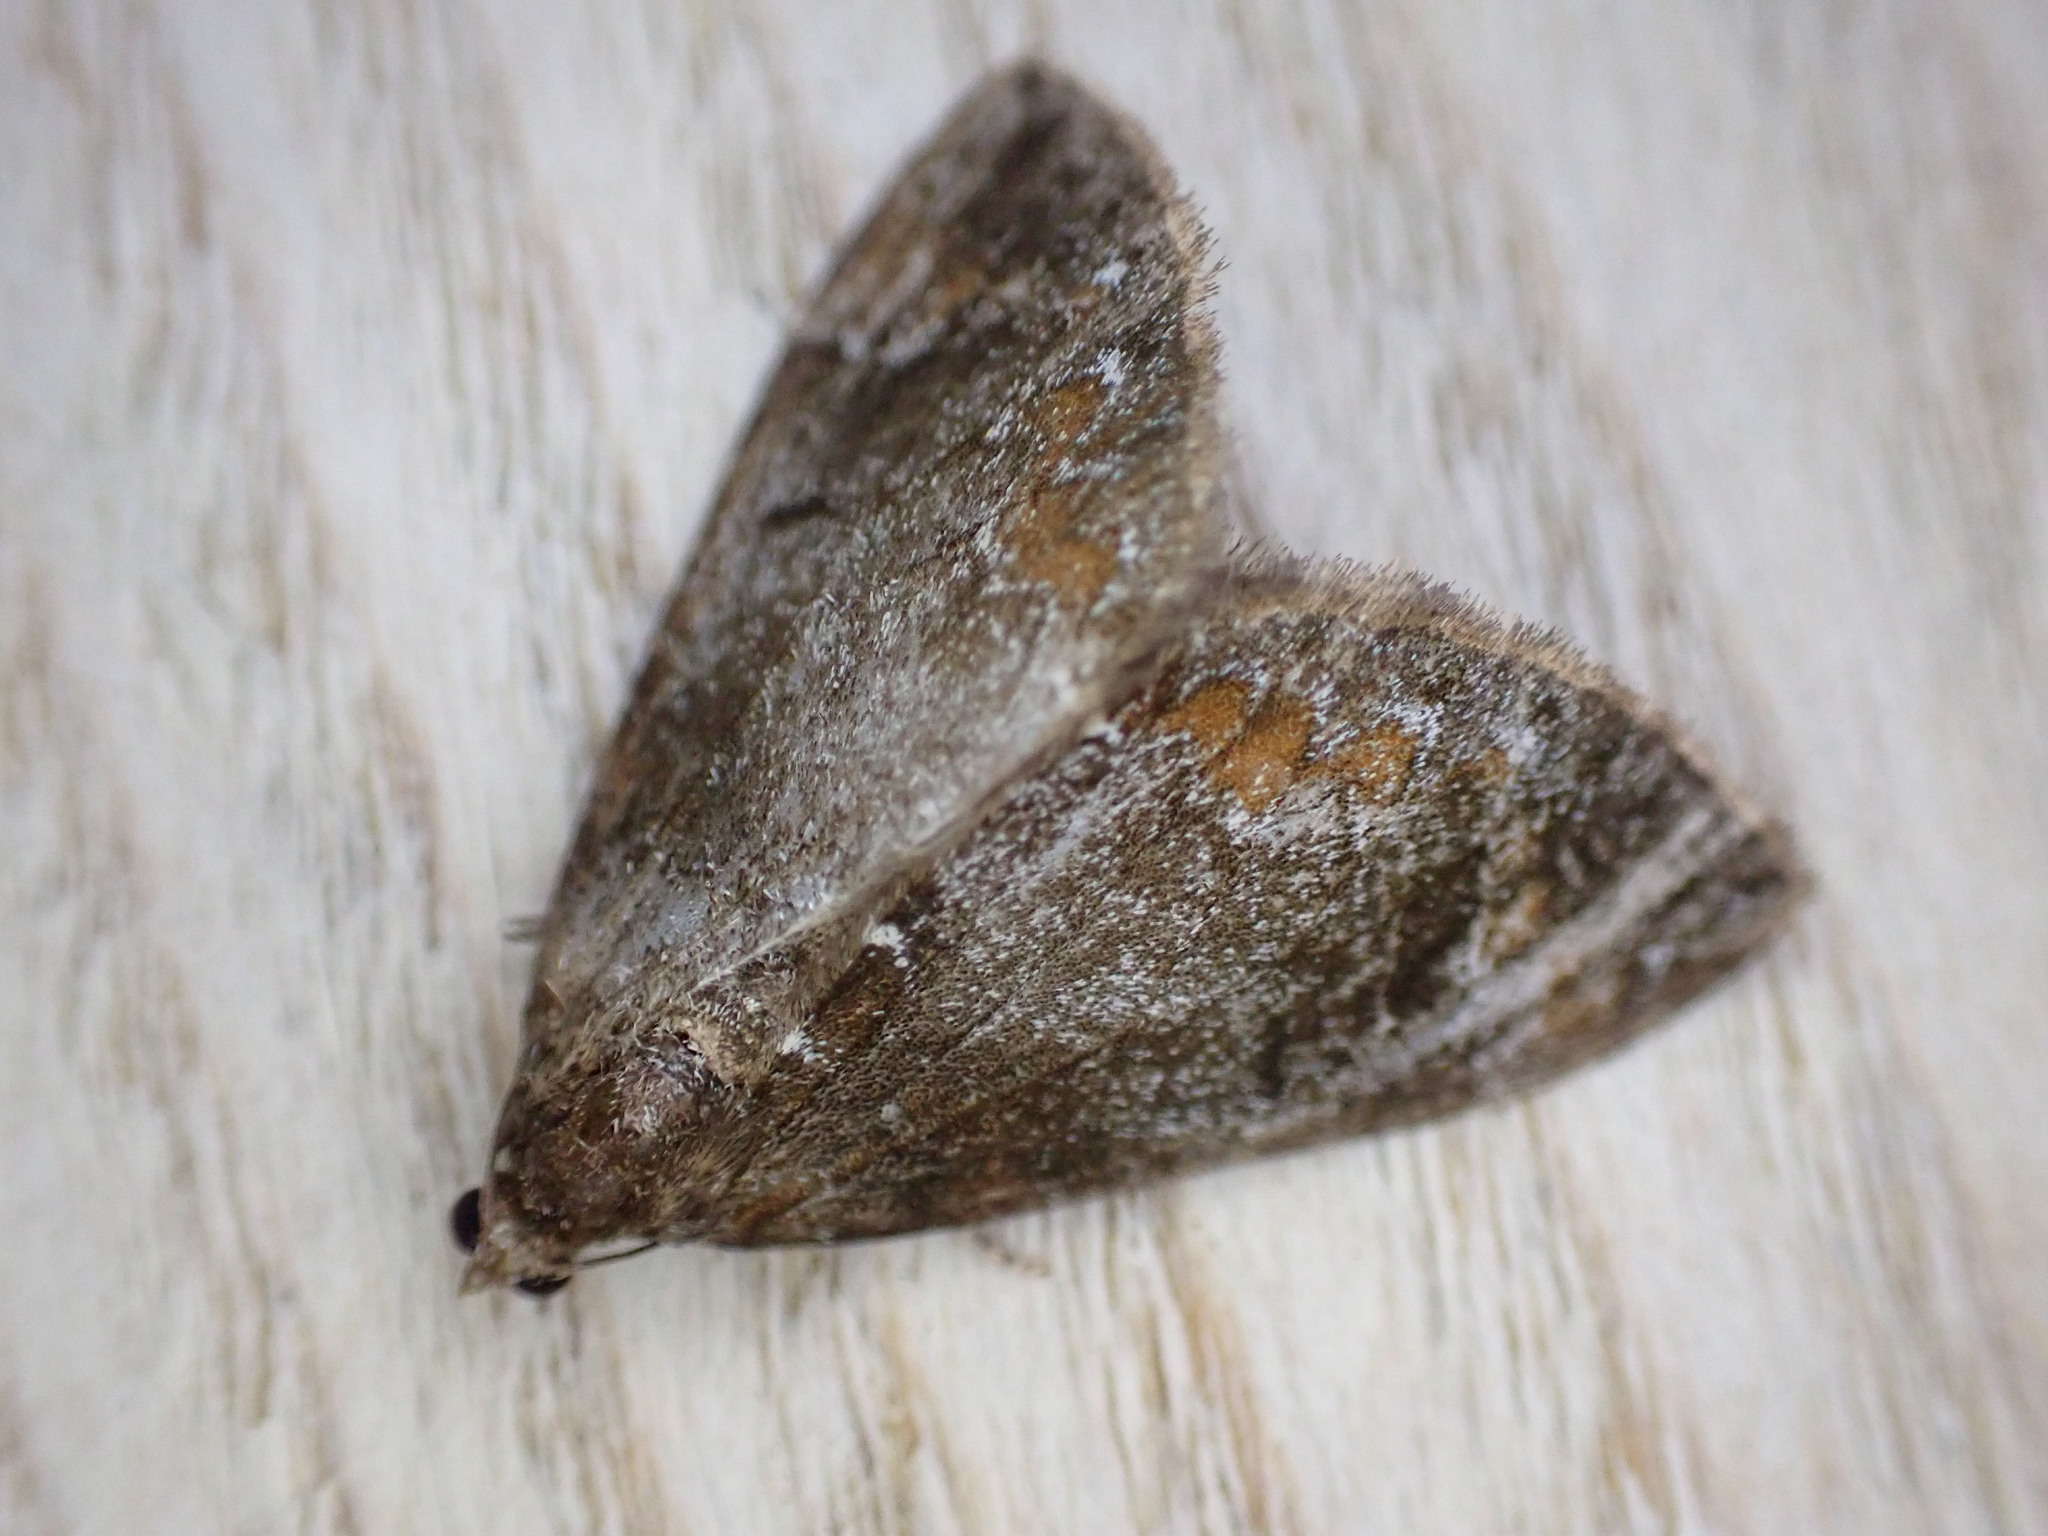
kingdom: Animalia
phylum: Arthropoda
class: Insecta
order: Lepidoptera
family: Geometridae
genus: Dysstroma
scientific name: Dysstroma truncata
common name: Common marbled carpet
